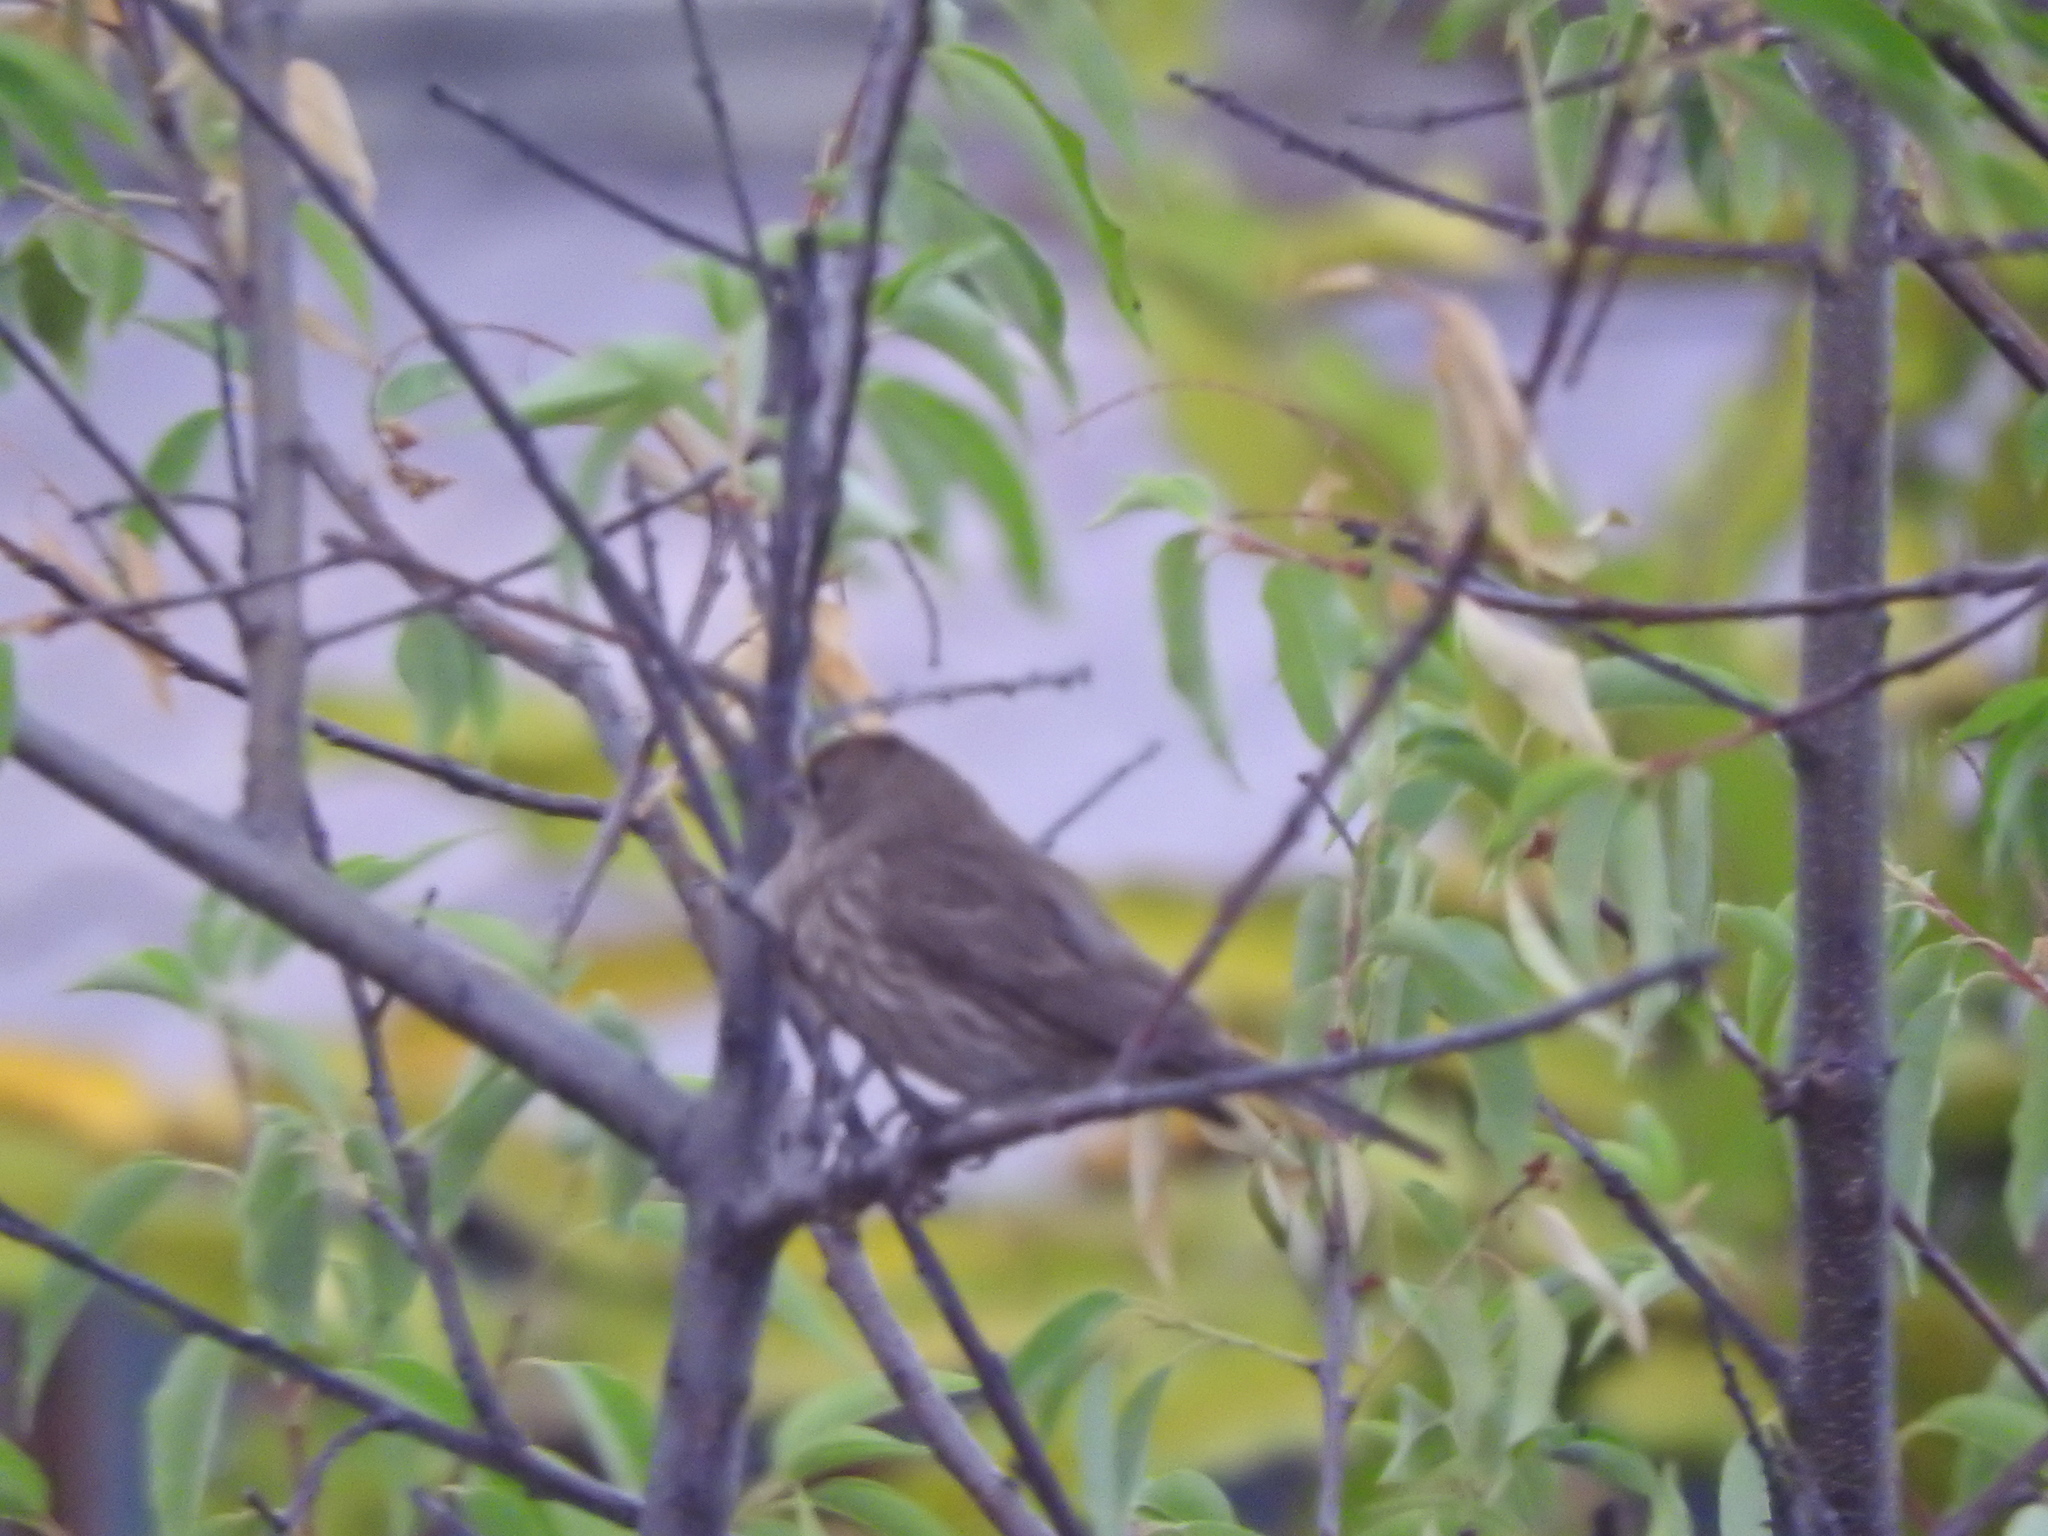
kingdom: Animalia
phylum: Chordata
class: Aves
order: Passeriformes
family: Fringillidae
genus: Haemorhous
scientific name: Haemorhous mexicanus
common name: House finch
